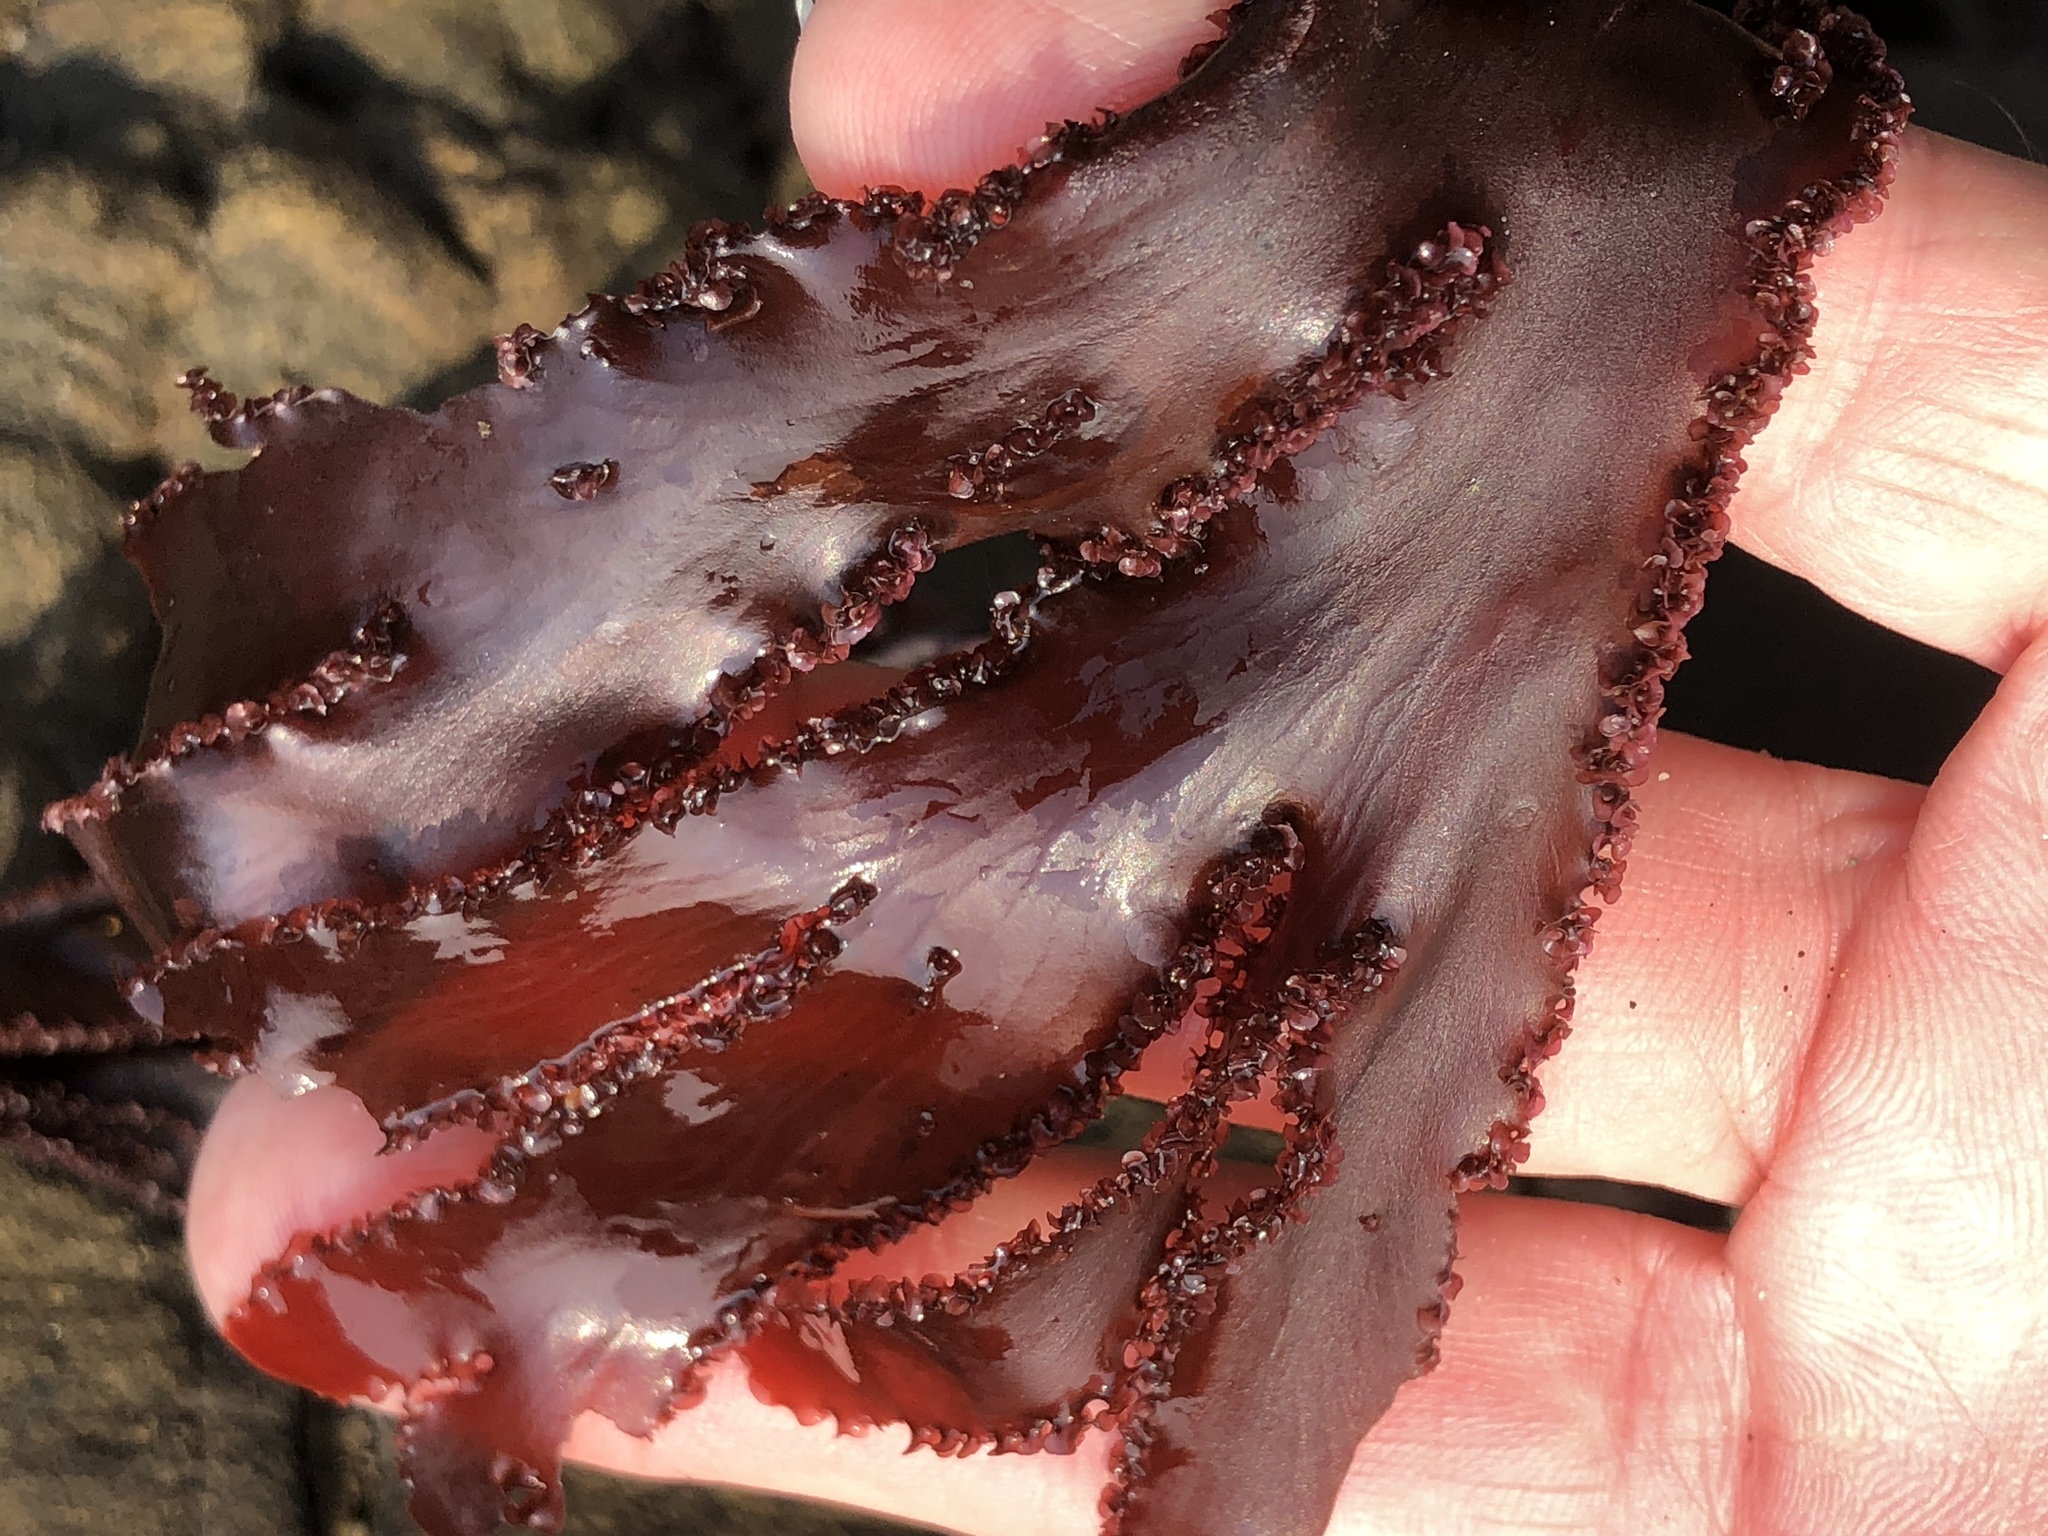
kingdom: Plantae
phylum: Rhodophyta
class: Florideophyceae
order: Ceramiales
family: Delesseriaceae
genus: Cryptopleura
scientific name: Cryptopleura ruprechtiana
